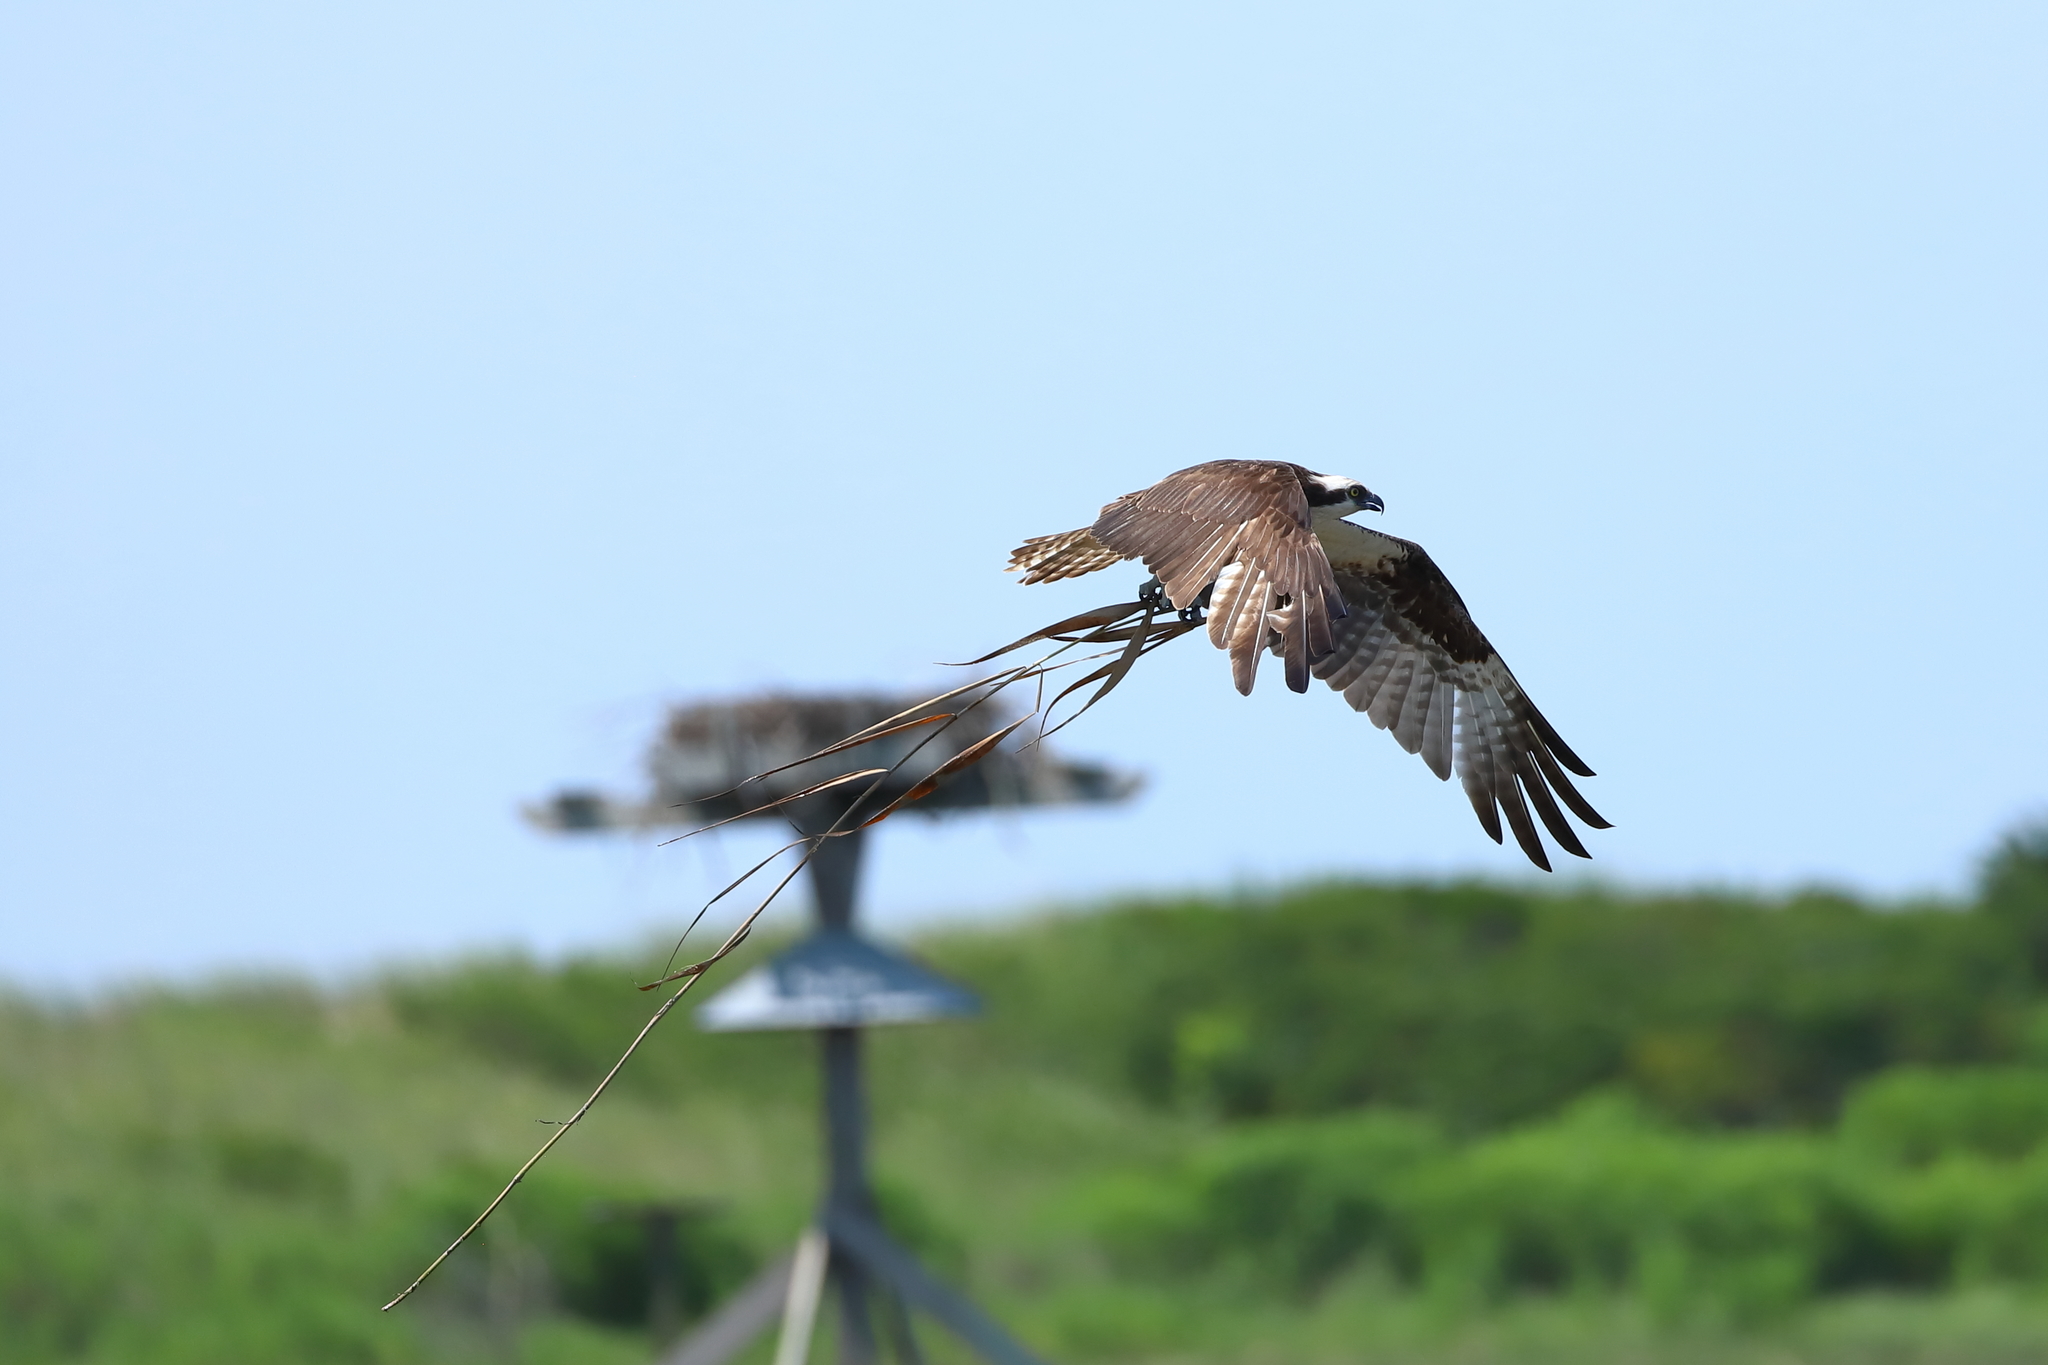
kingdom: Animalia
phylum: Chordata
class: Aves
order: Accipitriformes
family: Pandionidae
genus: Pandion
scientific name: Pandion haliaetus
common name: Osprey
